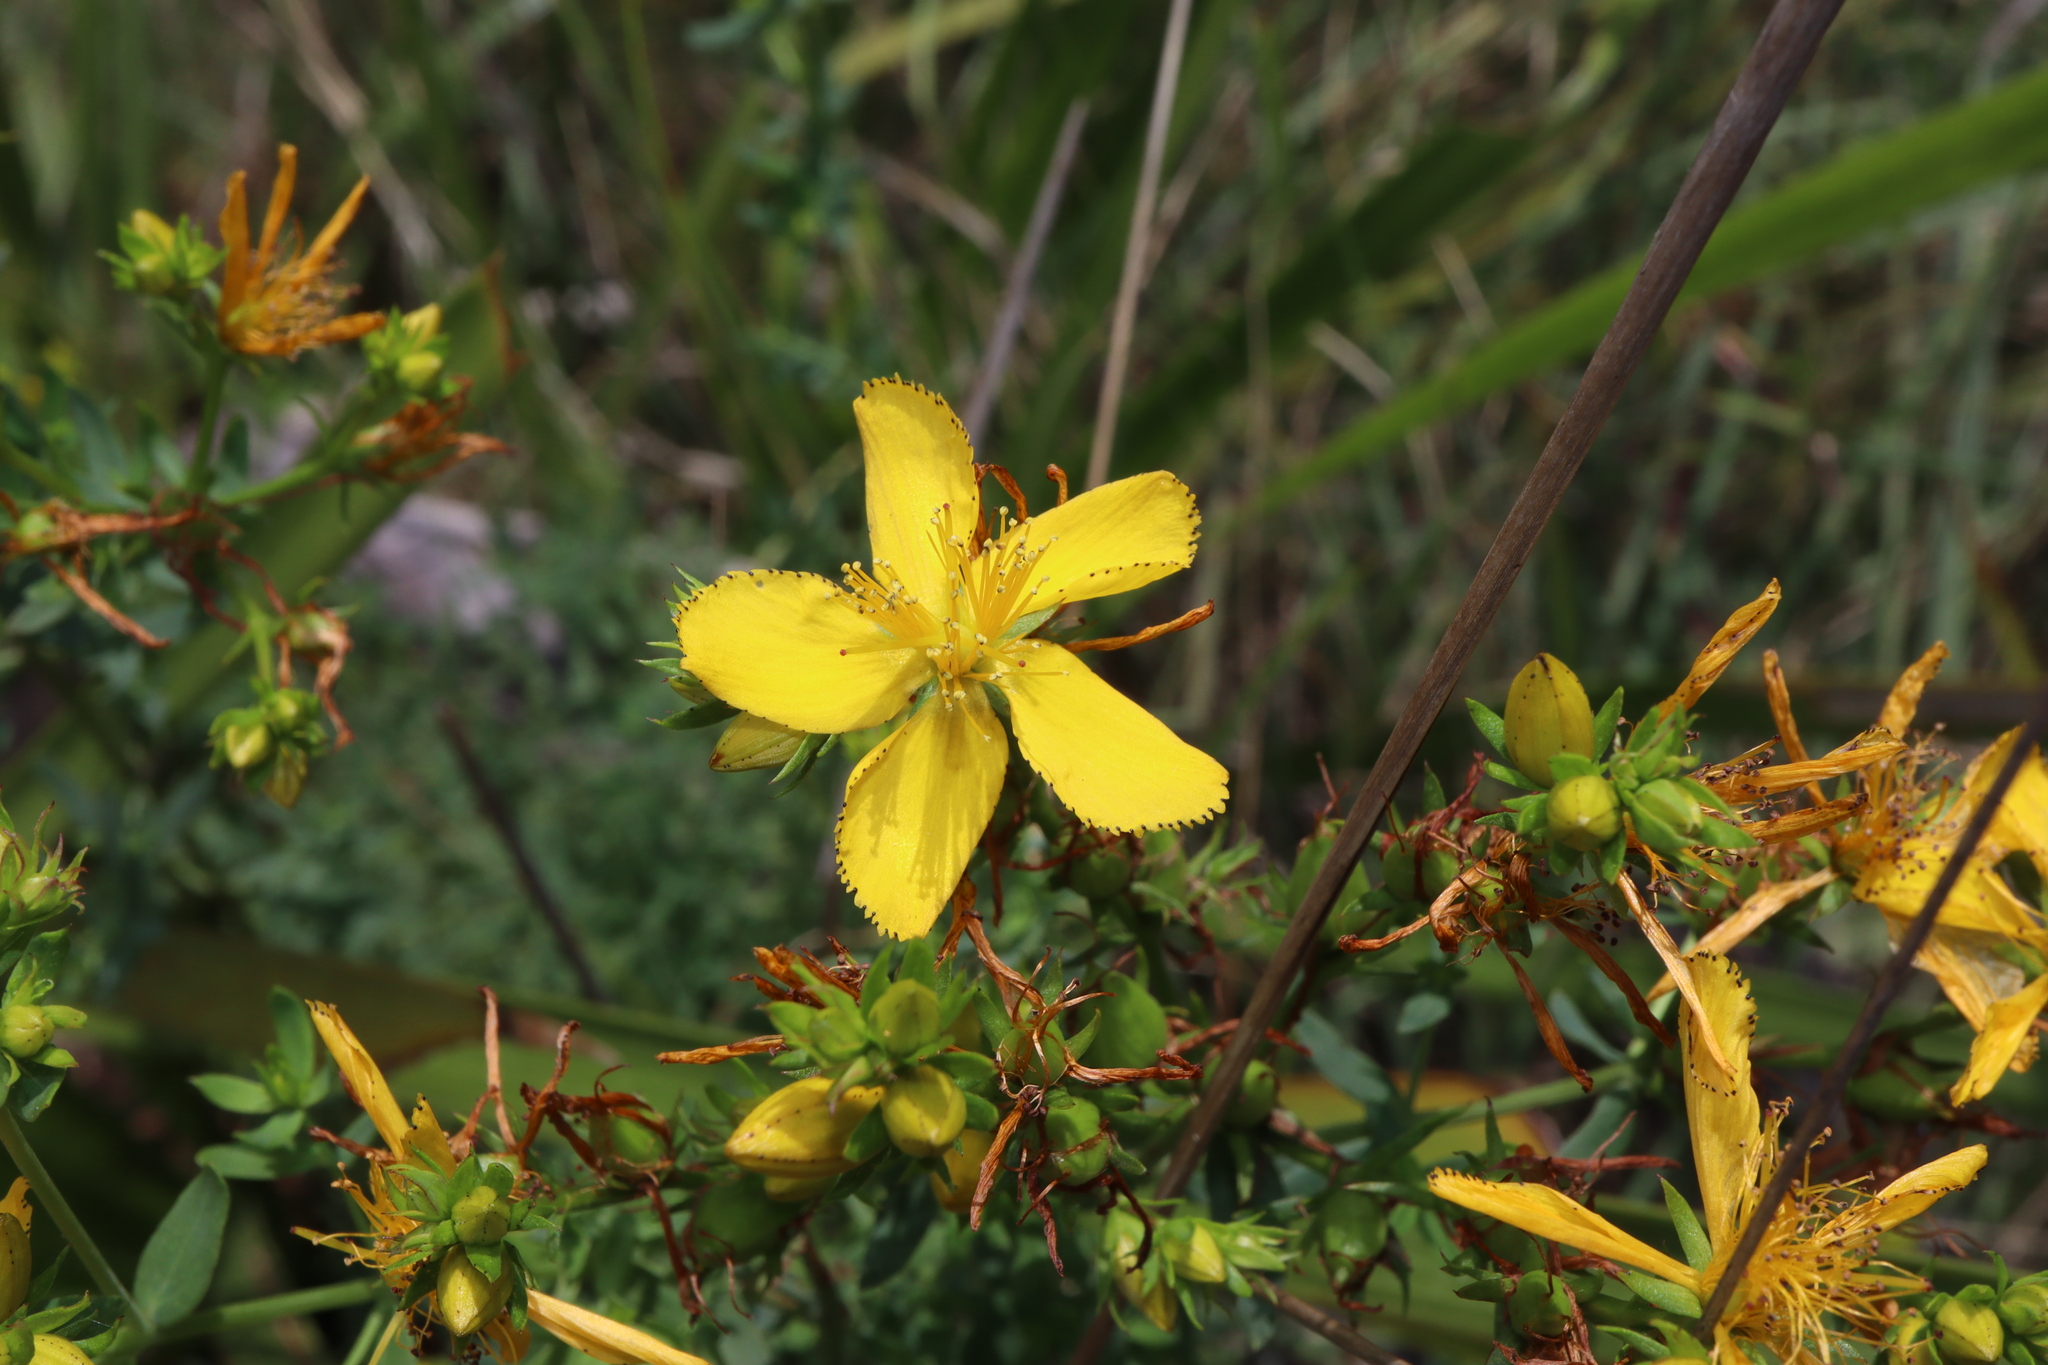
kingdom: Plantae
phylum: Tracheophyta
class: Magnoliopsida
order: Malpighiales
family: Hypericaceae
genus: Hypericum
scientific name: Hypericum perforatum
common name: Common st. johnswort
